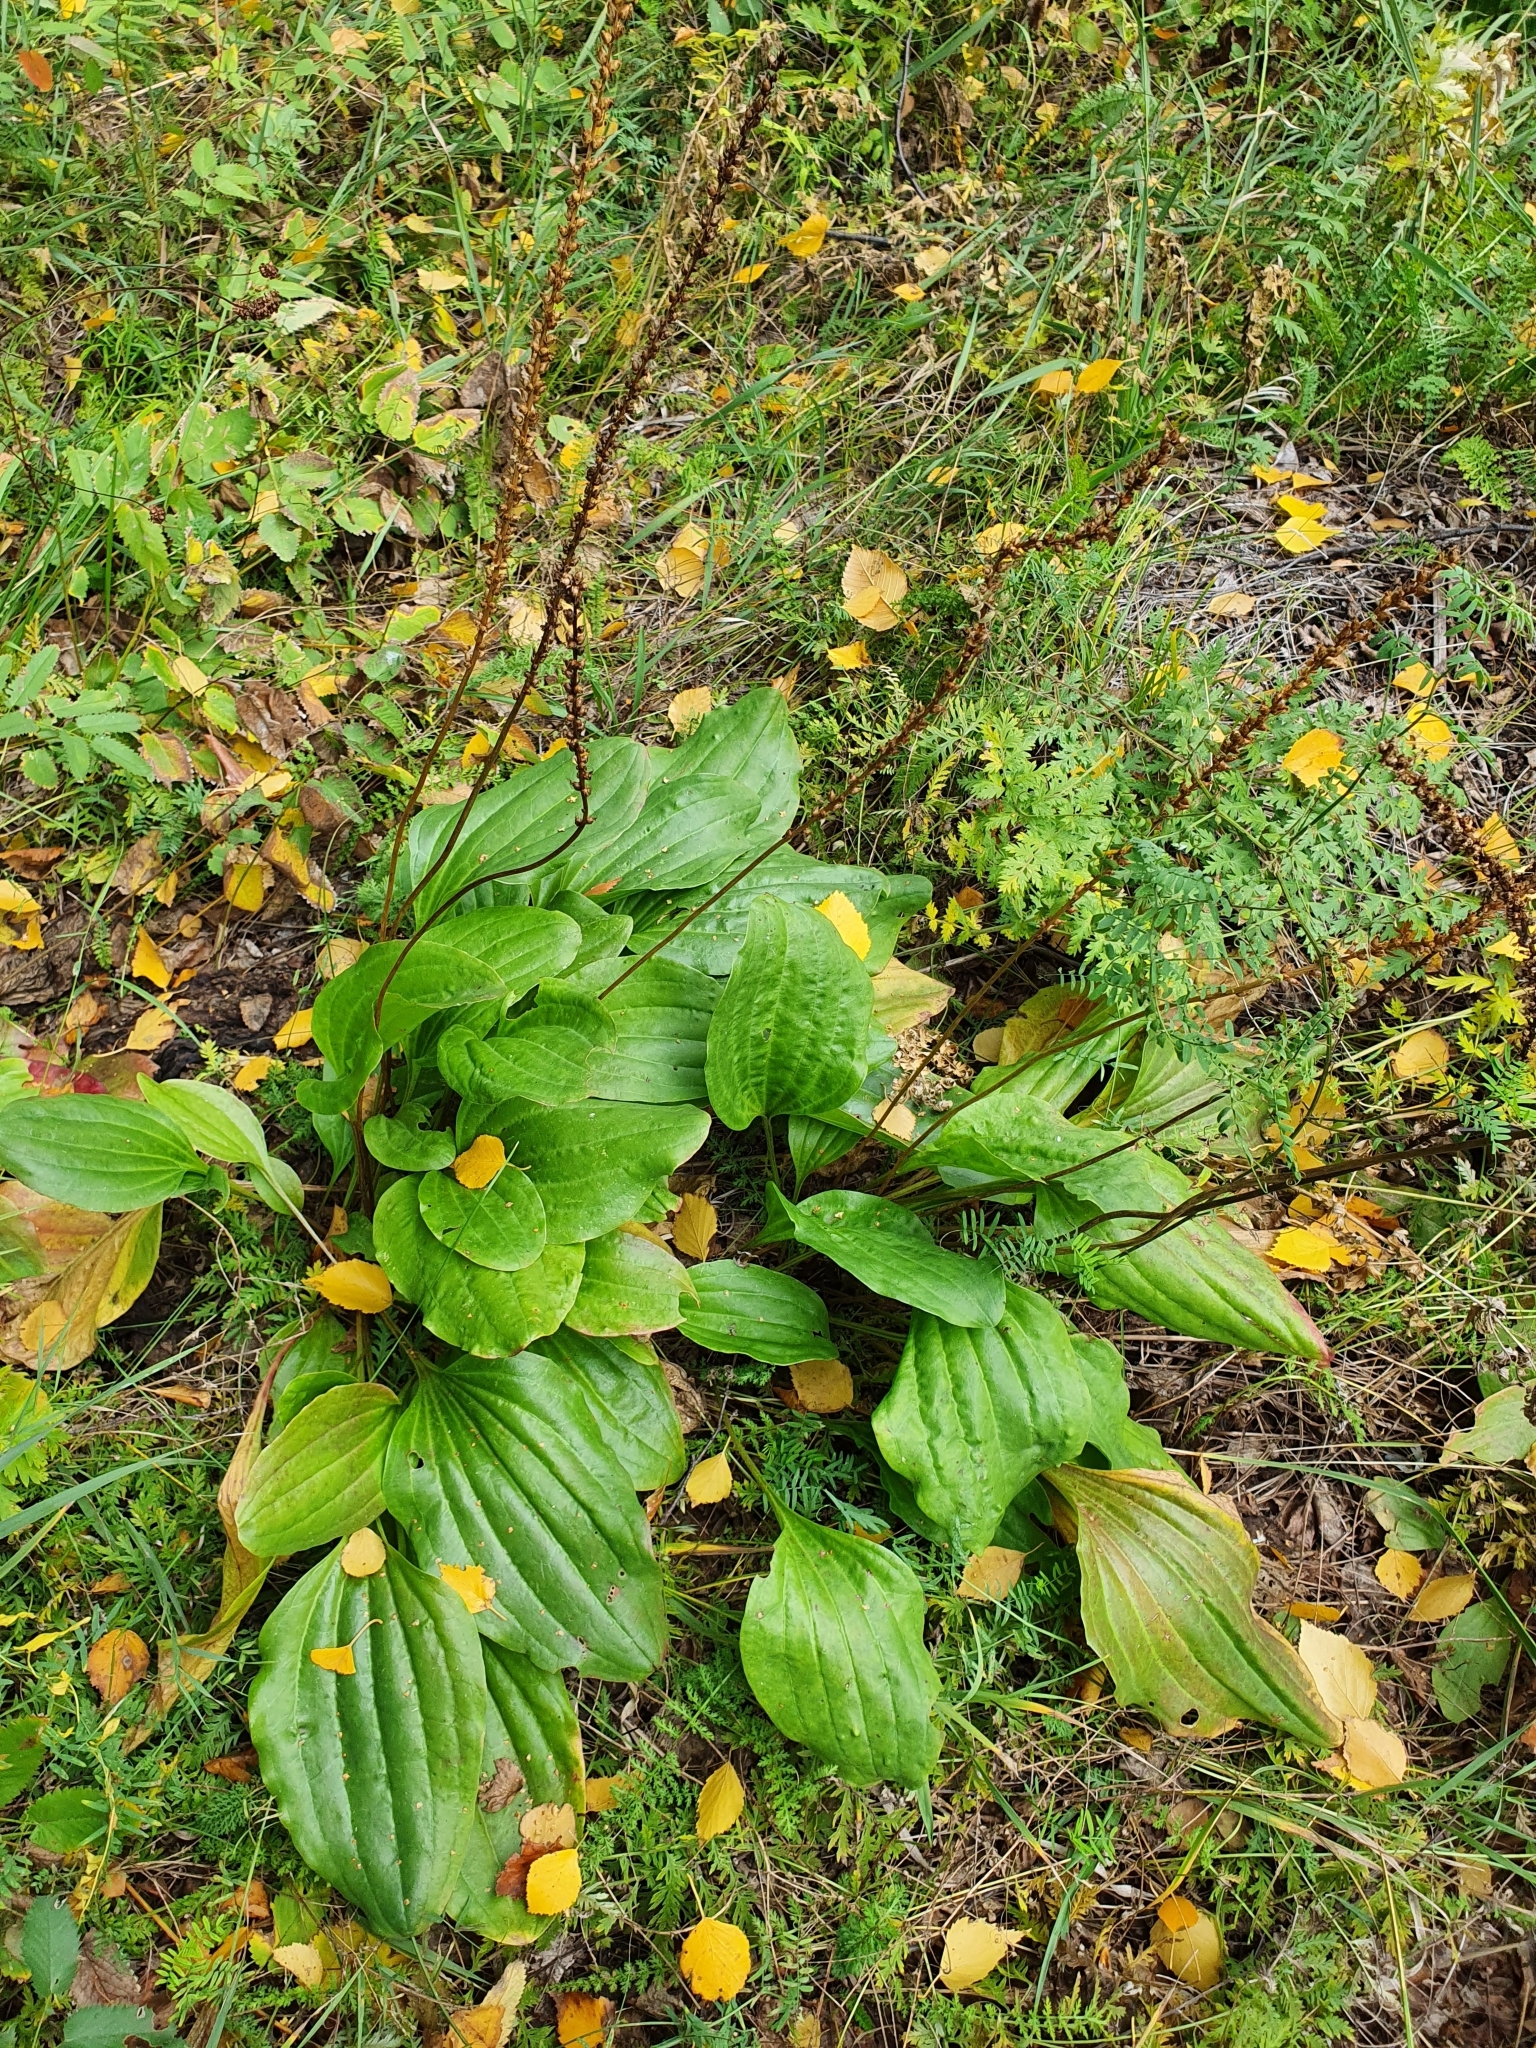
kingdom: Plantae
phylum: Tracheophyta
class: Magnoliopsida
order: Lamiales
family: Plantaginaceae
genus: Plantago
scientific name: Plantago cornuti
